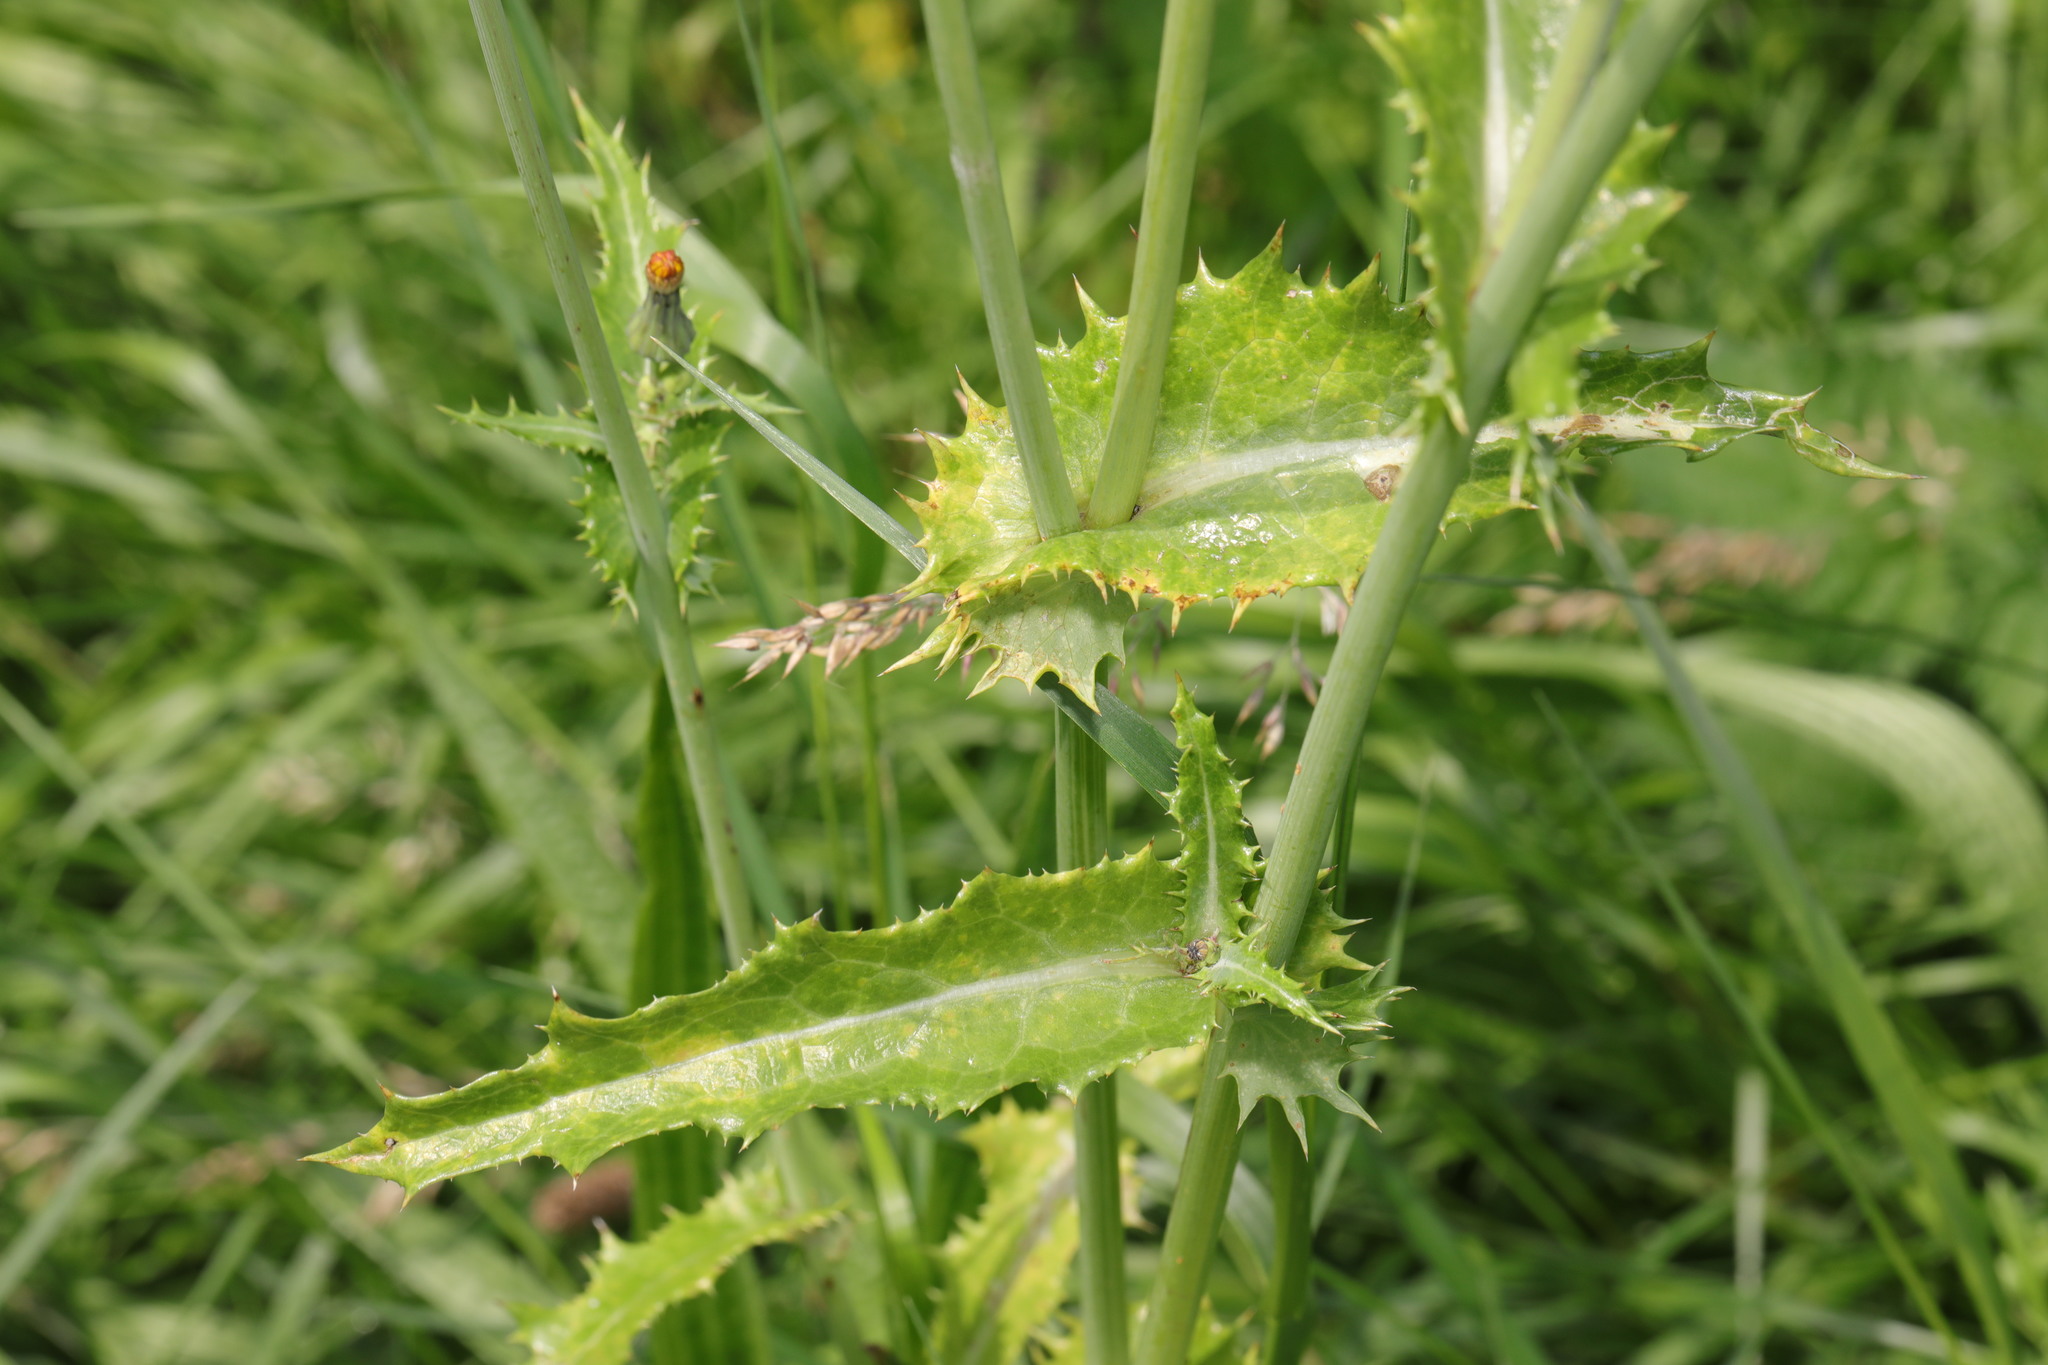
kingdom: Plantae
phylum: Tracheophyta
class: Magnoliopsida
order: Asterales
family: Asteraceae
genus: Sonchus
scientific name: Sonchus asper
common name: Prickly sow-thistle
